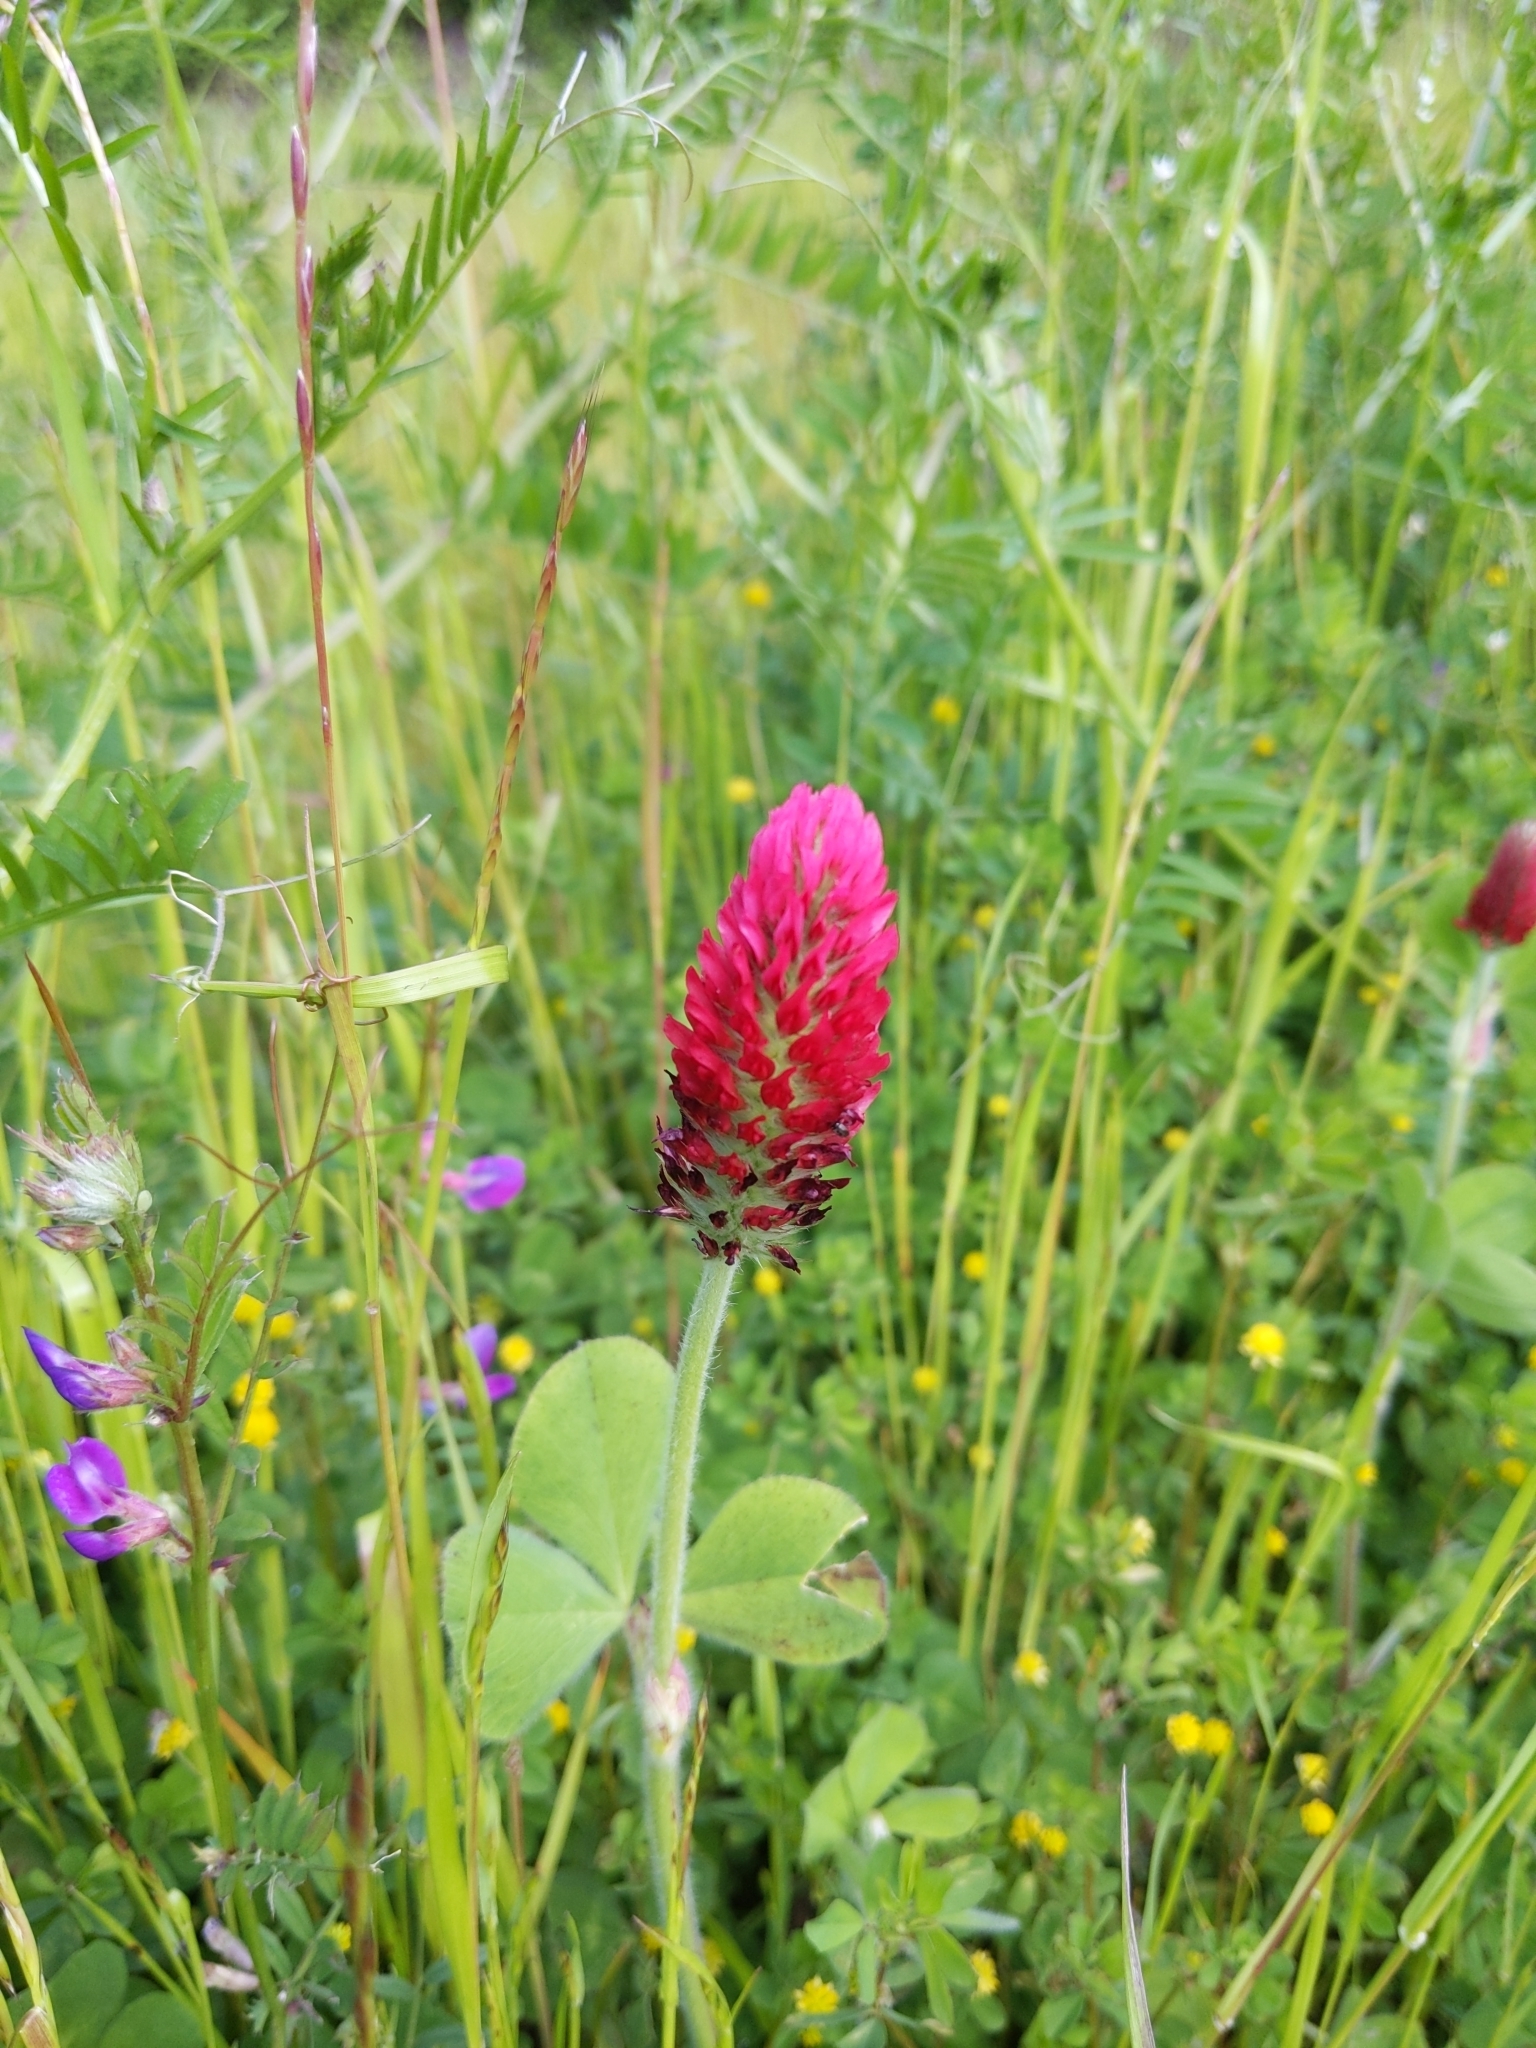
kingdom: Plantae
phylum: Tracheophyta
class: Magnoliopsida
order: Fabales
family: Fabaceae
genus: Trifolium
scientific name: Trifolium incarnatum
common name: Crimson clover
